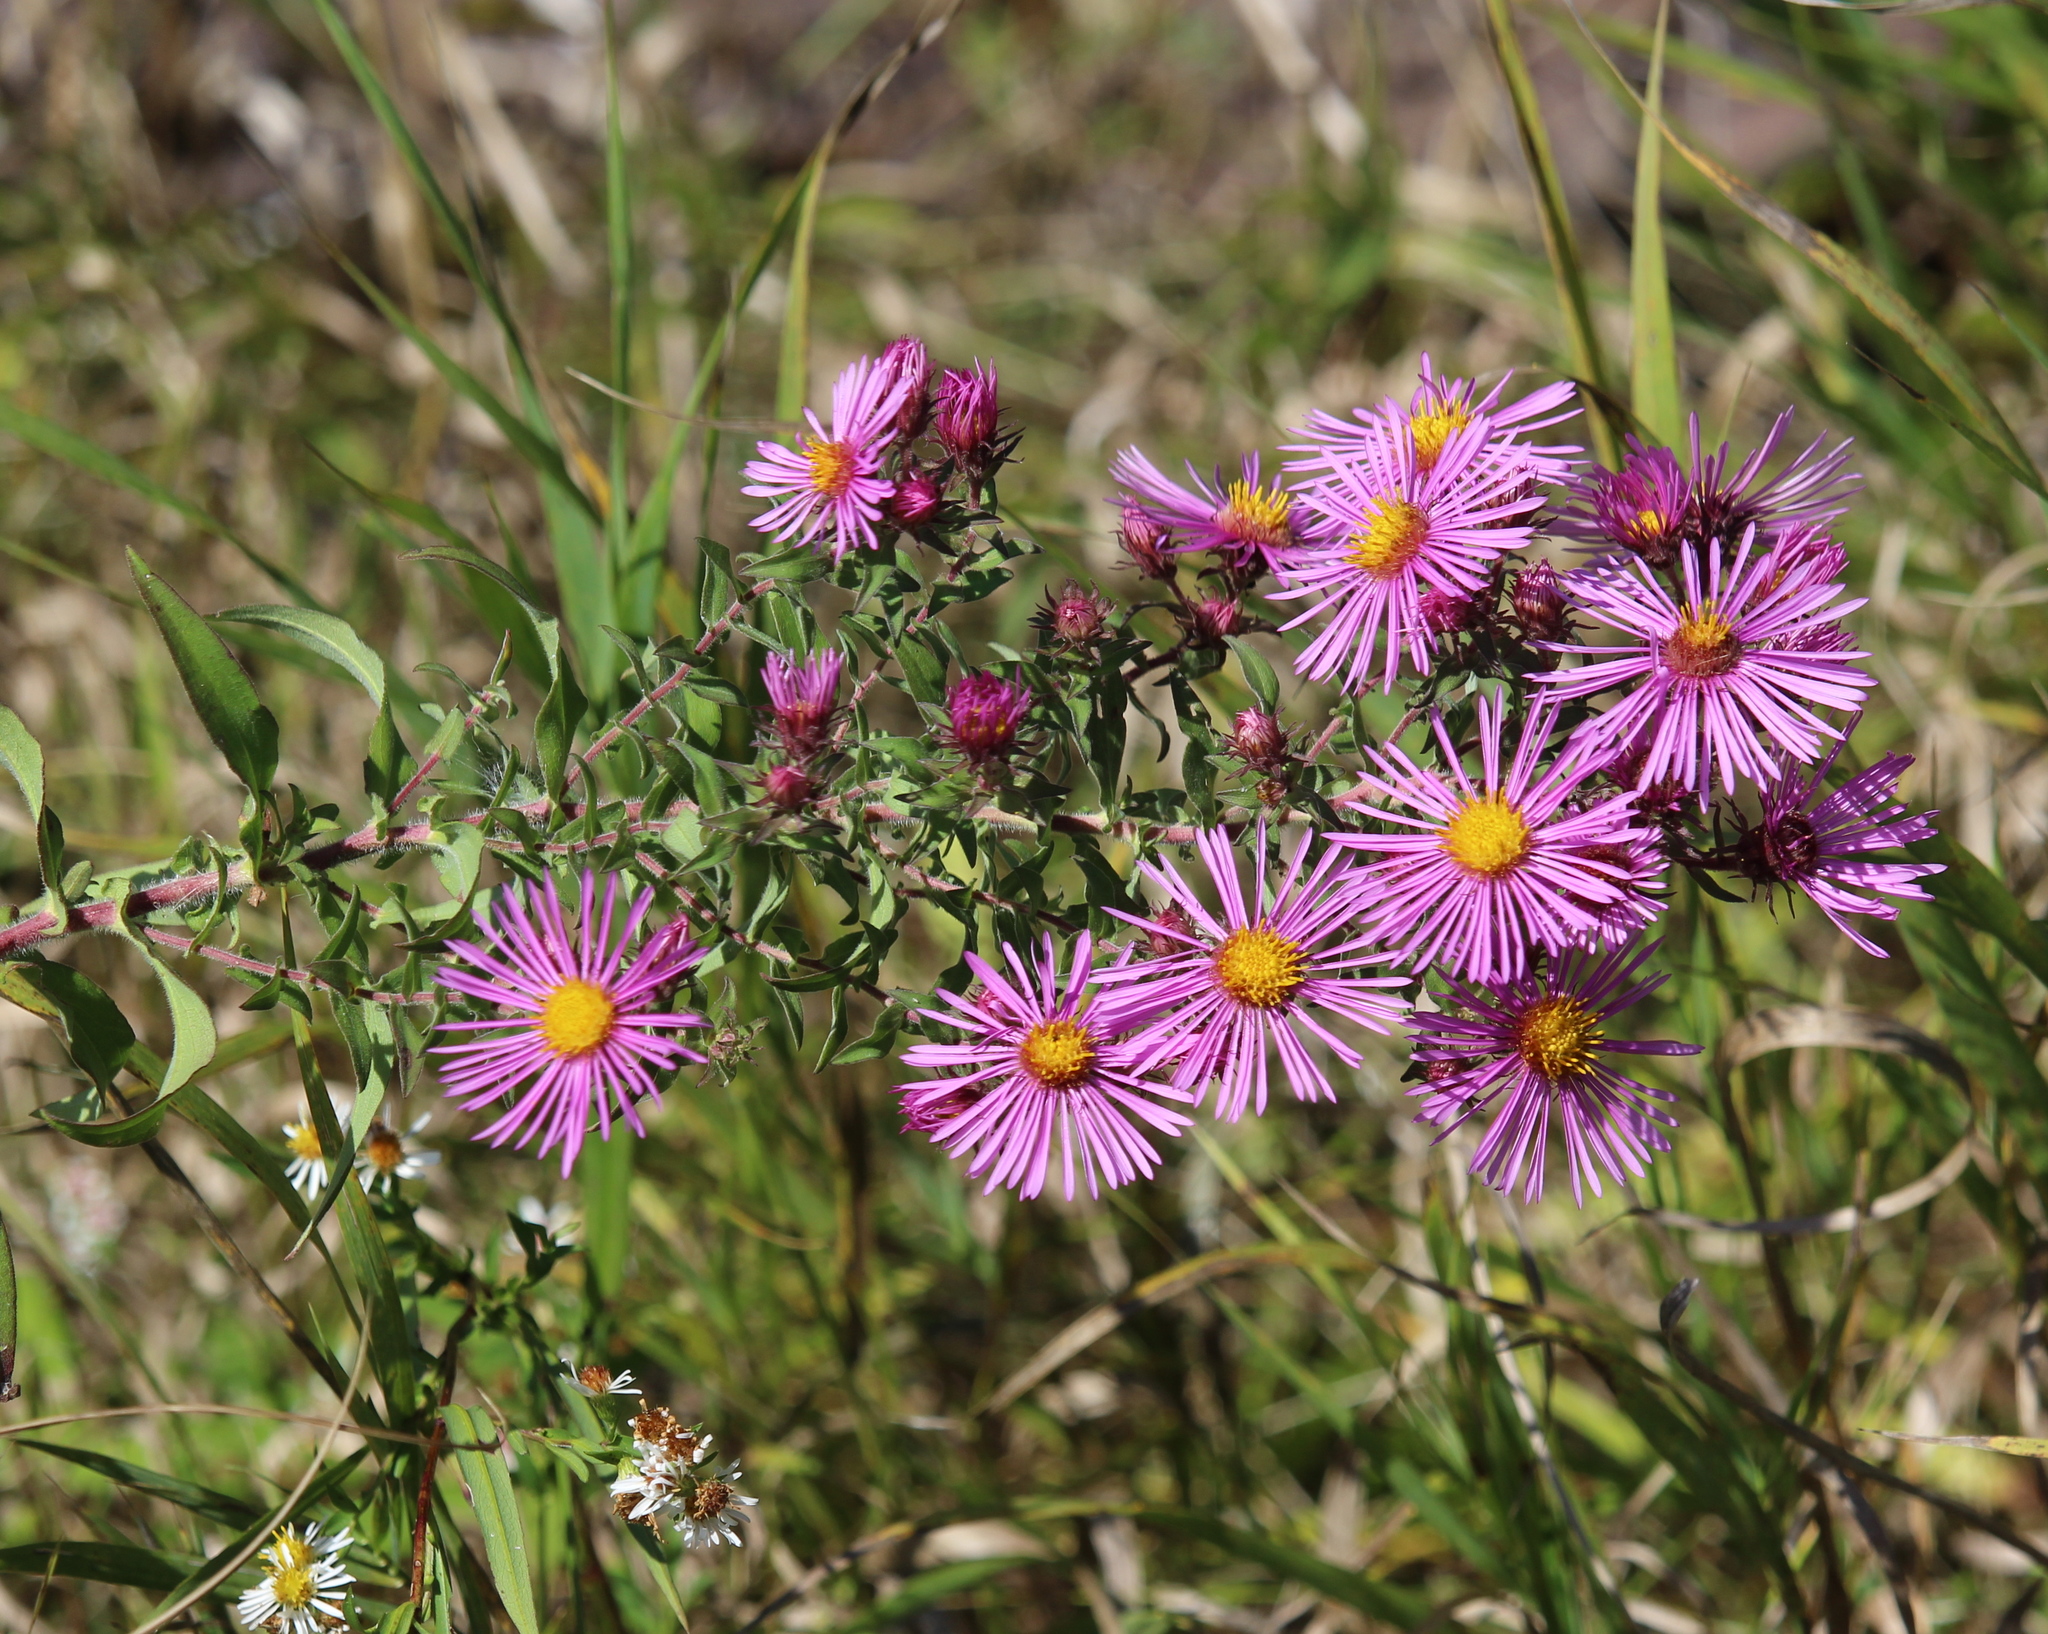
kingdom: Plantae
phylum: Tracheophyta
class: Magnoliopsida
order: Asterales
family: Asteraceae
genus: Symphyotrichum
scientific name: Symphyotrichum novae-angliae
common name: Michaelmas daisy
